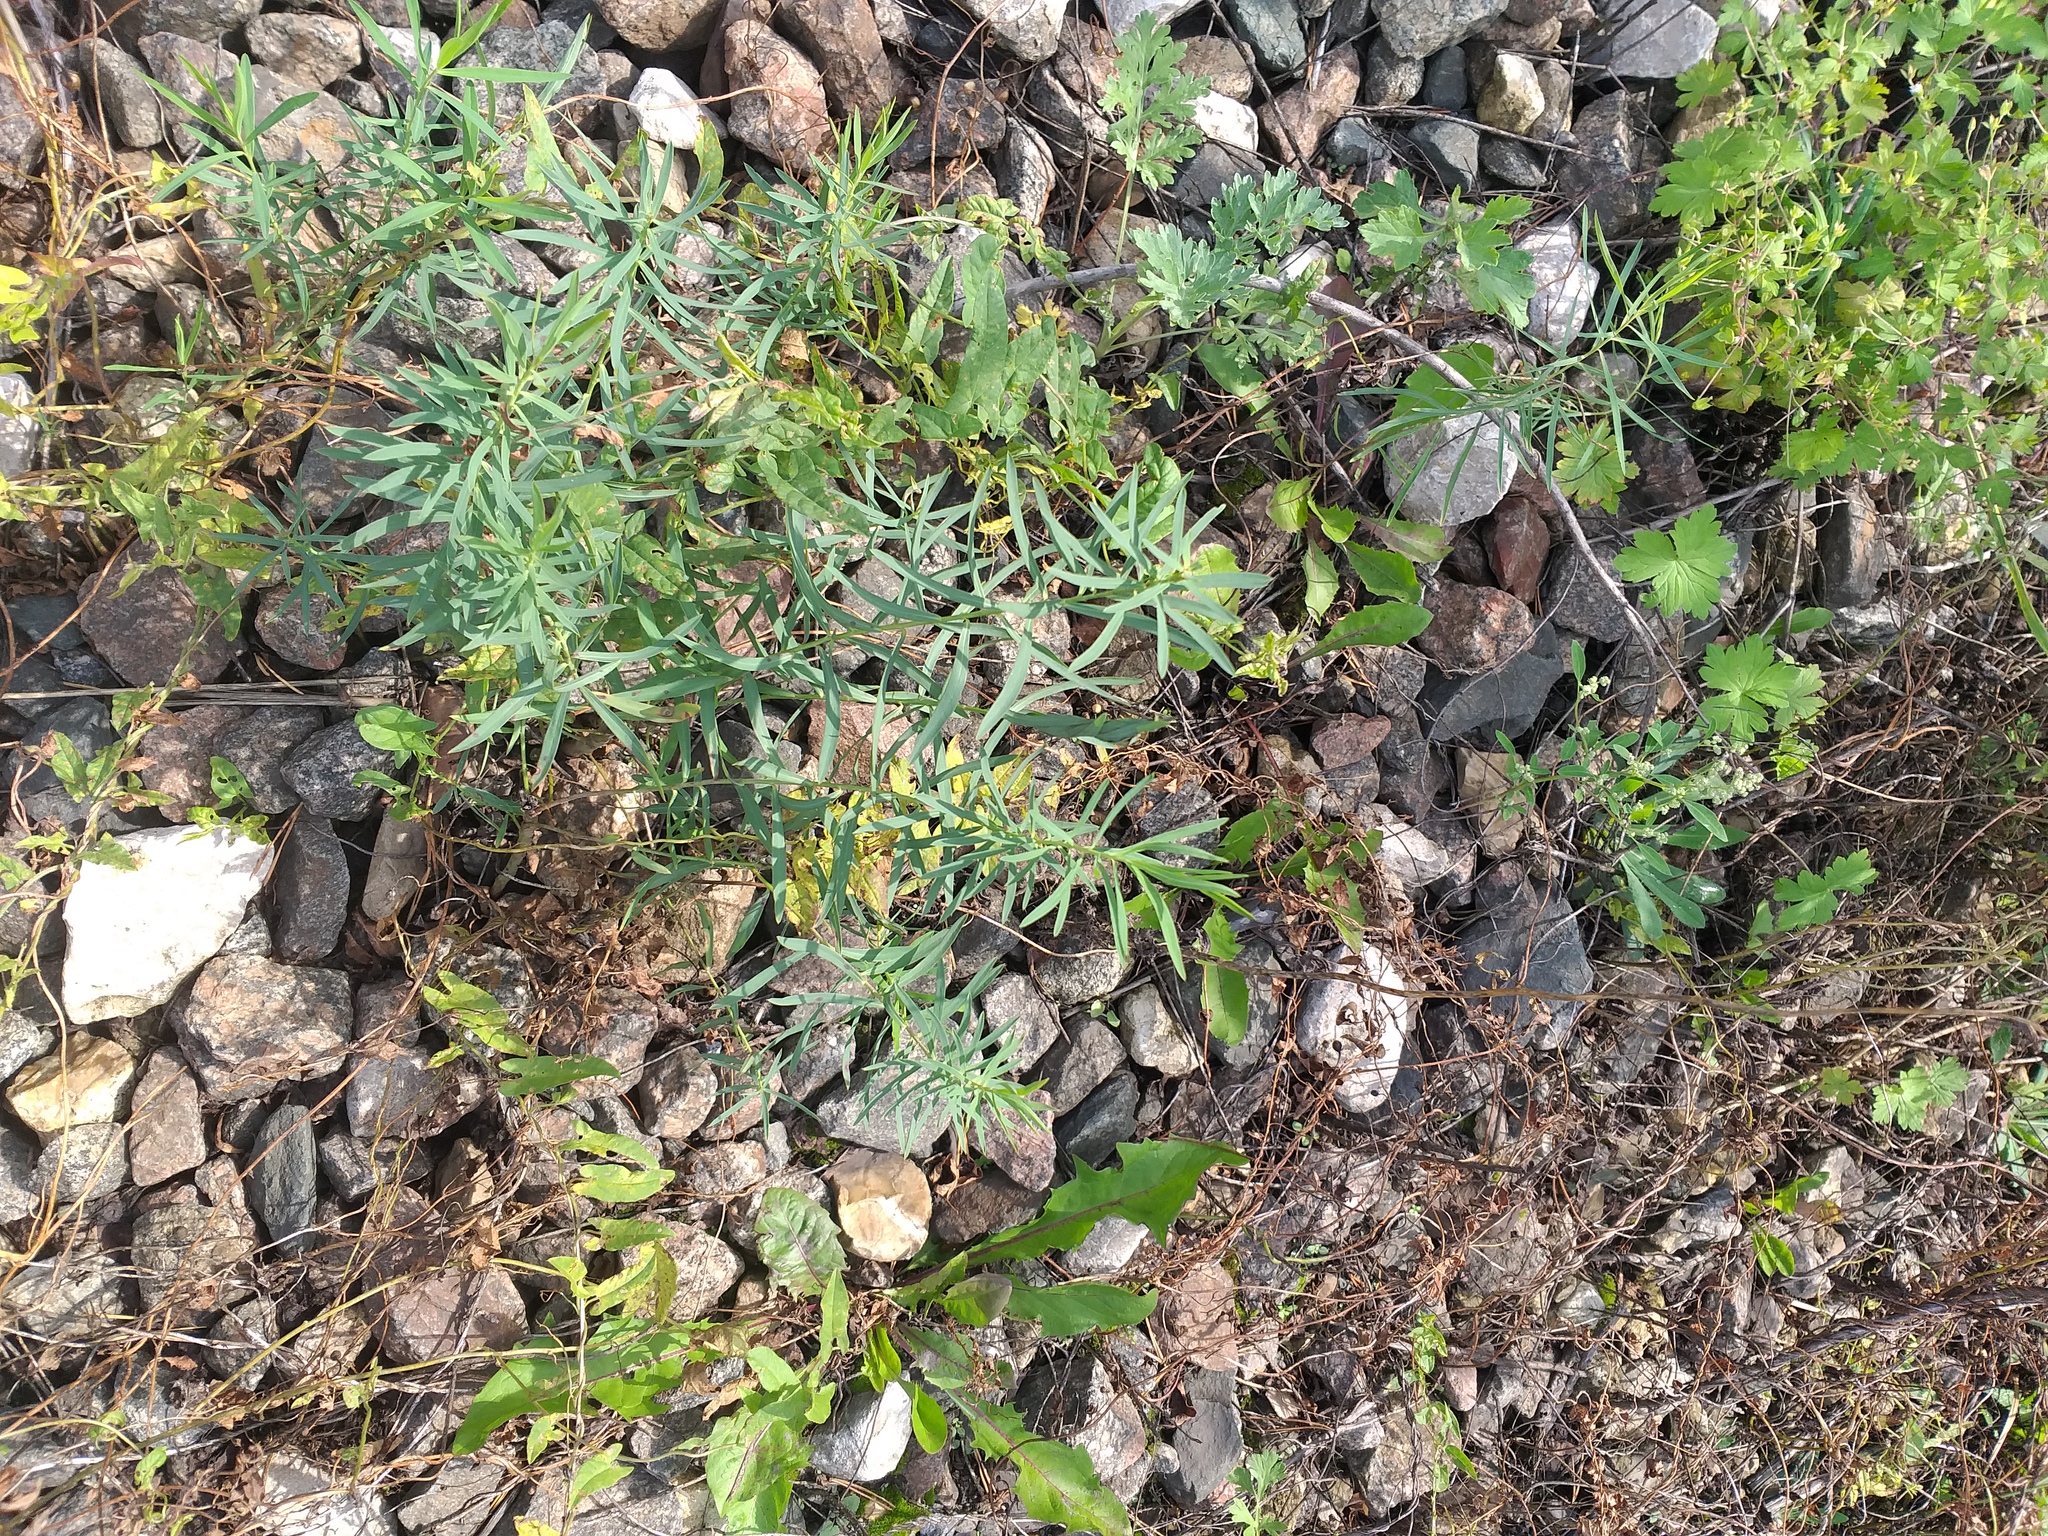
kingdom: Plantae
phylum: Tracheophyta
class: Magnoliopsida
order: Malpighiales
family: Euphorbiaceae
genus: Euphorbia
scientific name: Euphorbia virgata
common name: Leafy spurge
